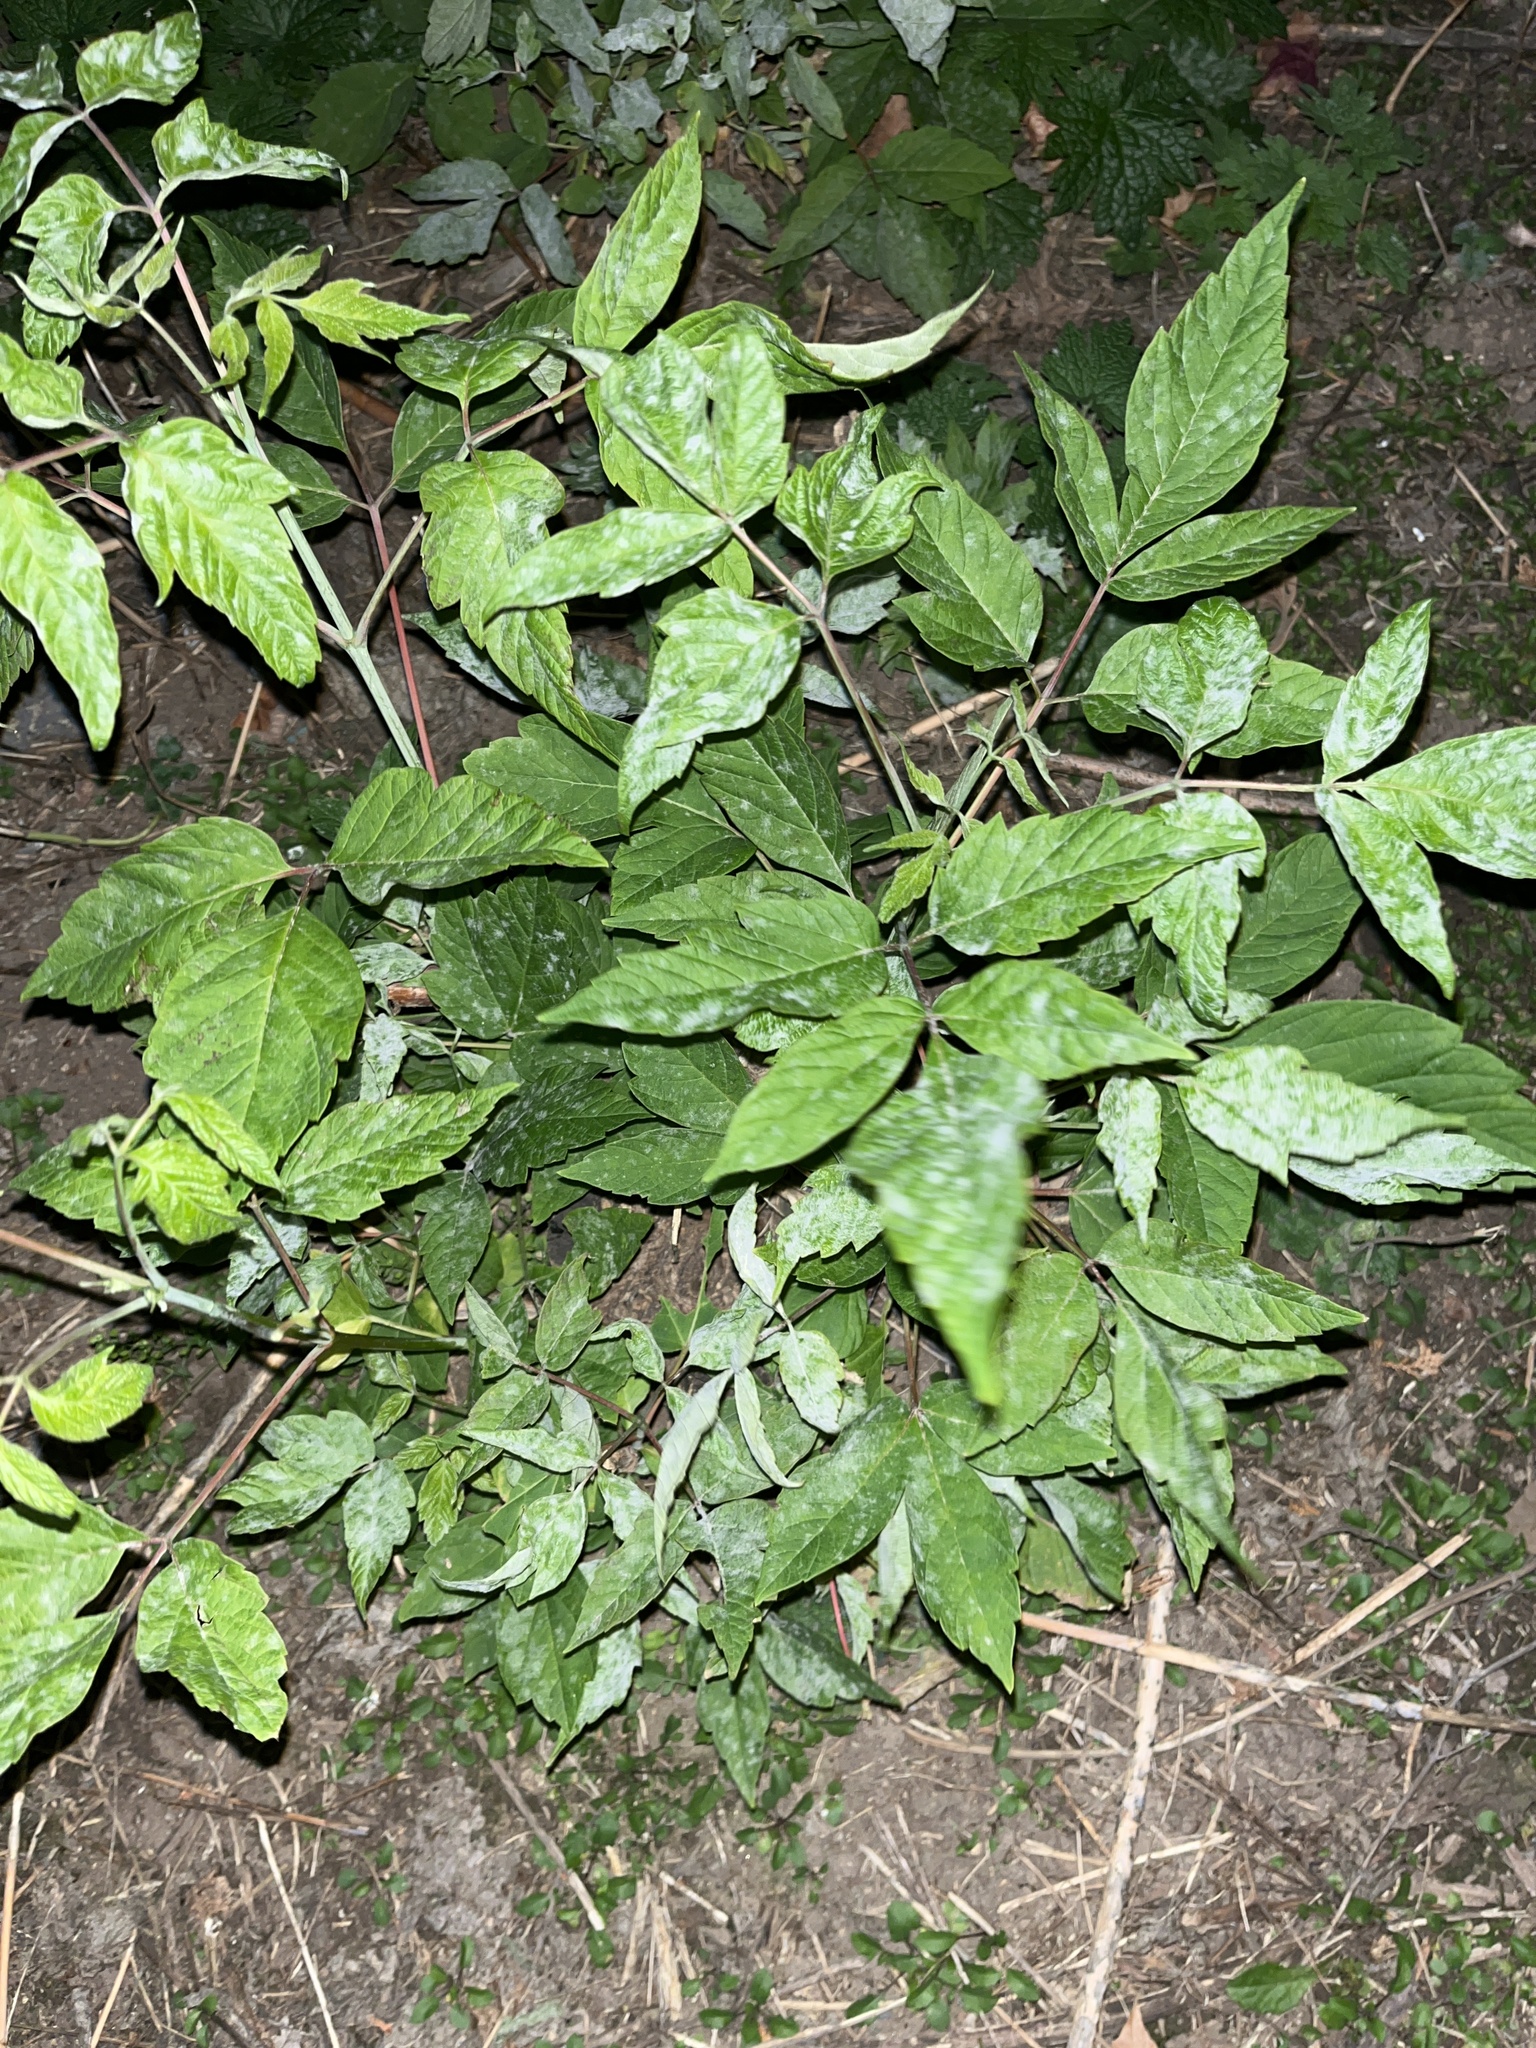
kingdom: Plantae
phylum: Tracheophyta
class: Magnoliopsida
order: Sapindales
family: Sapindaceae
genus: Acer
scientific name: Acer negundo
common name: Ashleaf maple
